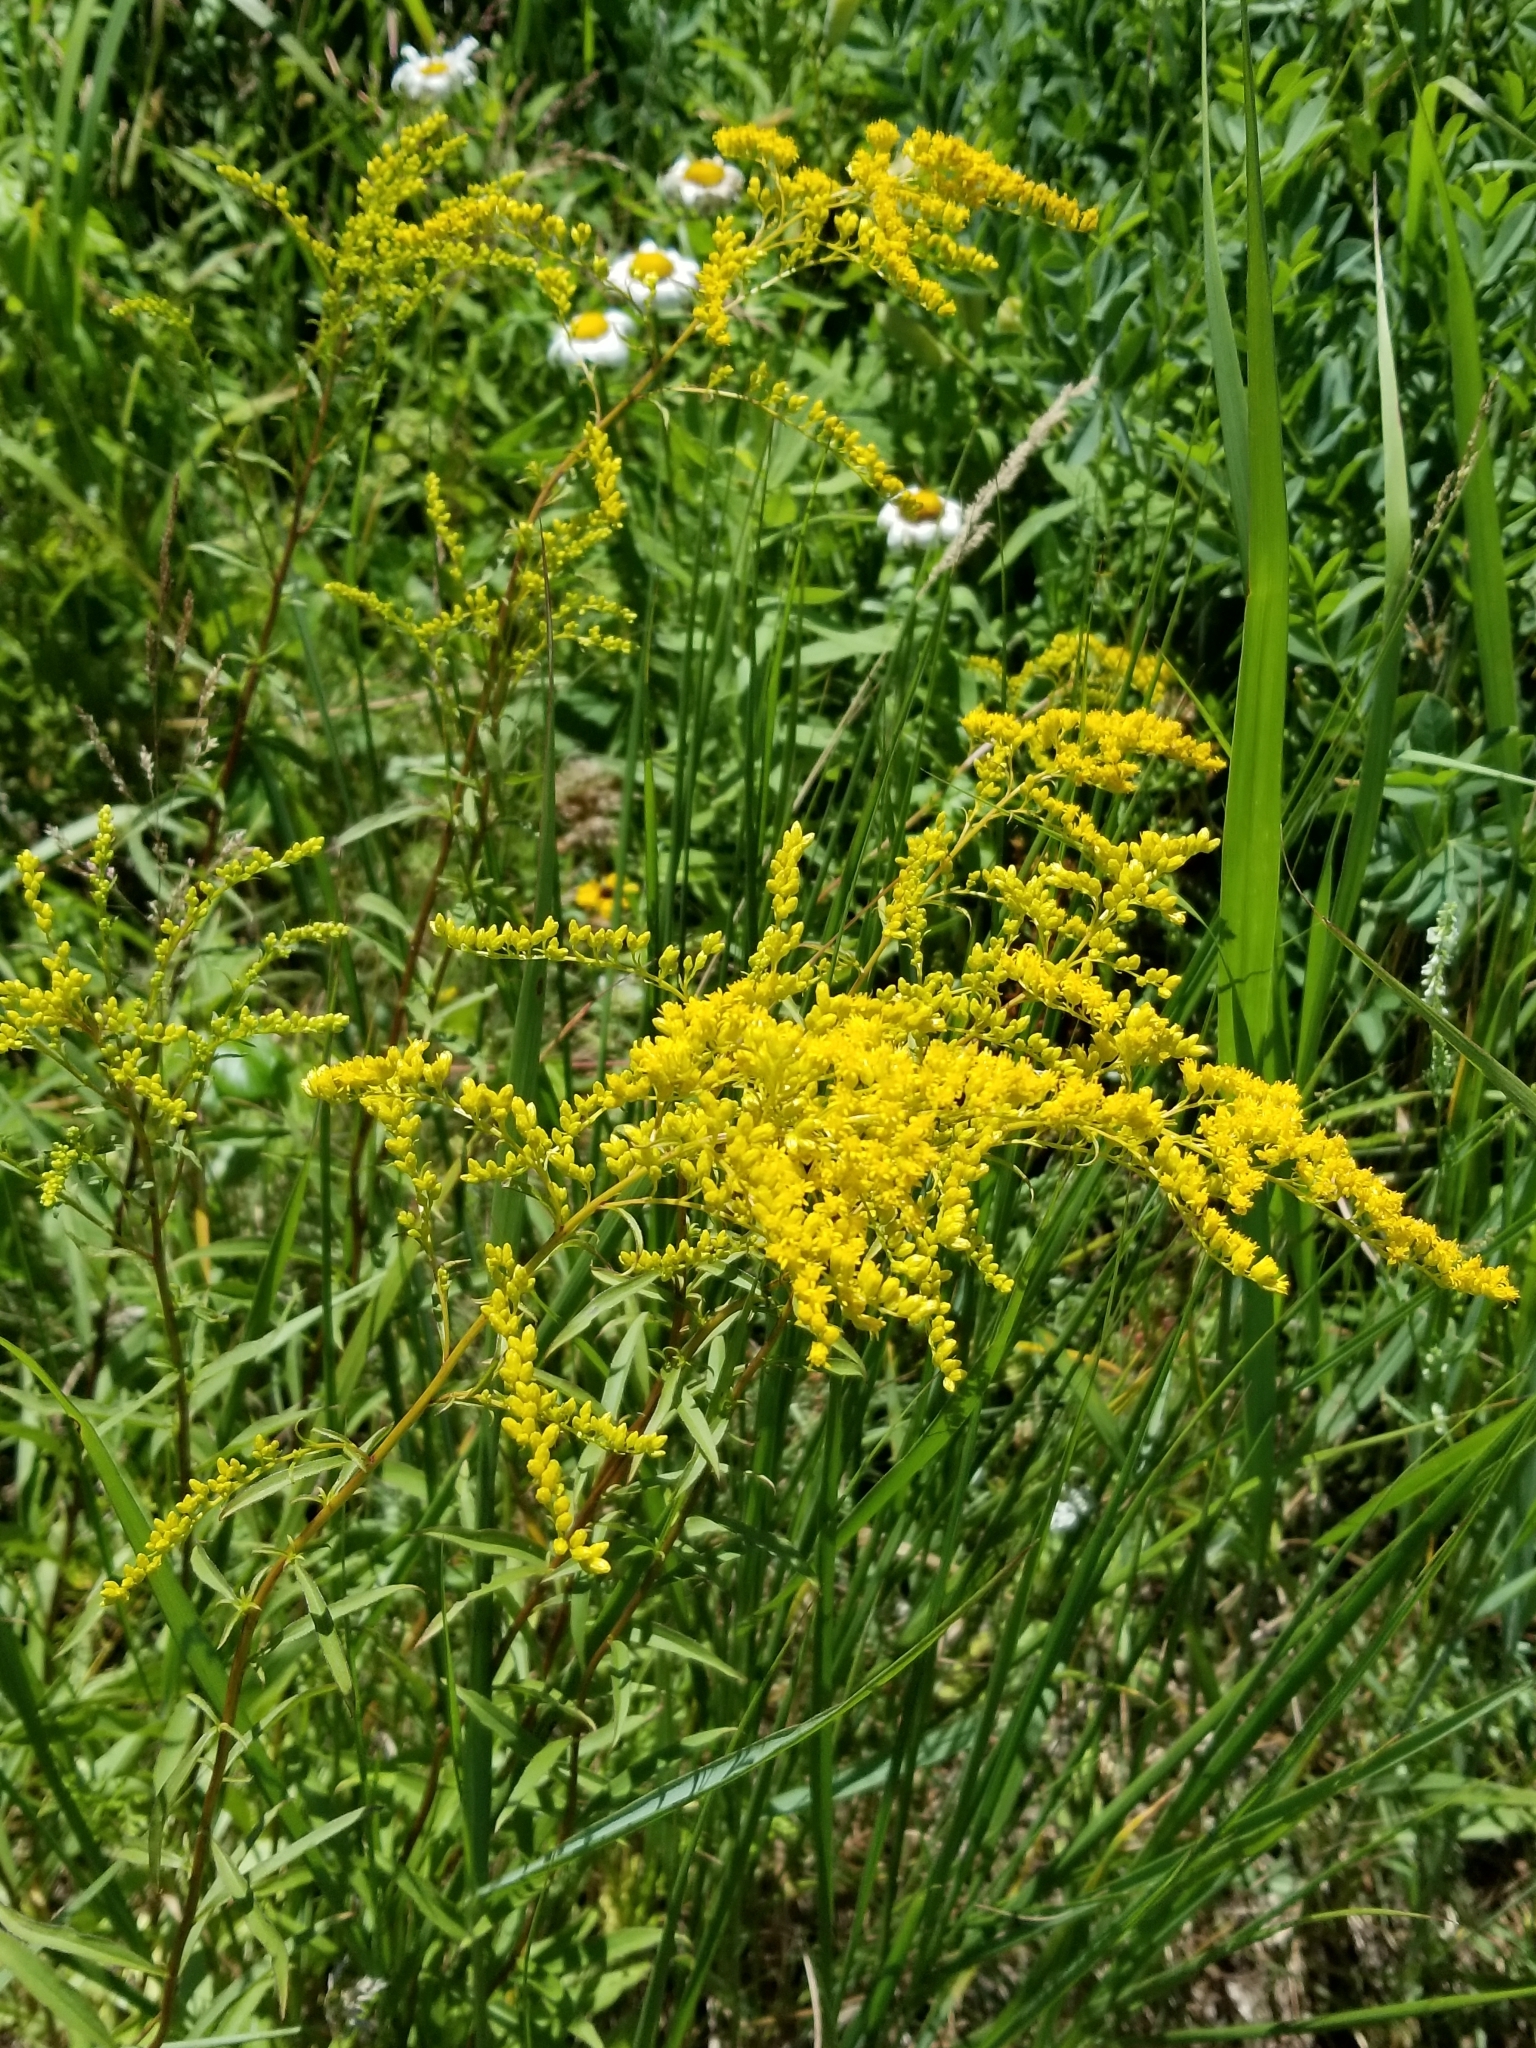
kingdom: Plantae
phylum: Tracheophyta
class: Magnoliopsida
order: Asterales
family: Asteraceae
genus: Solidago
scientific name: Solidago juncea
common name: Early goldenrod
